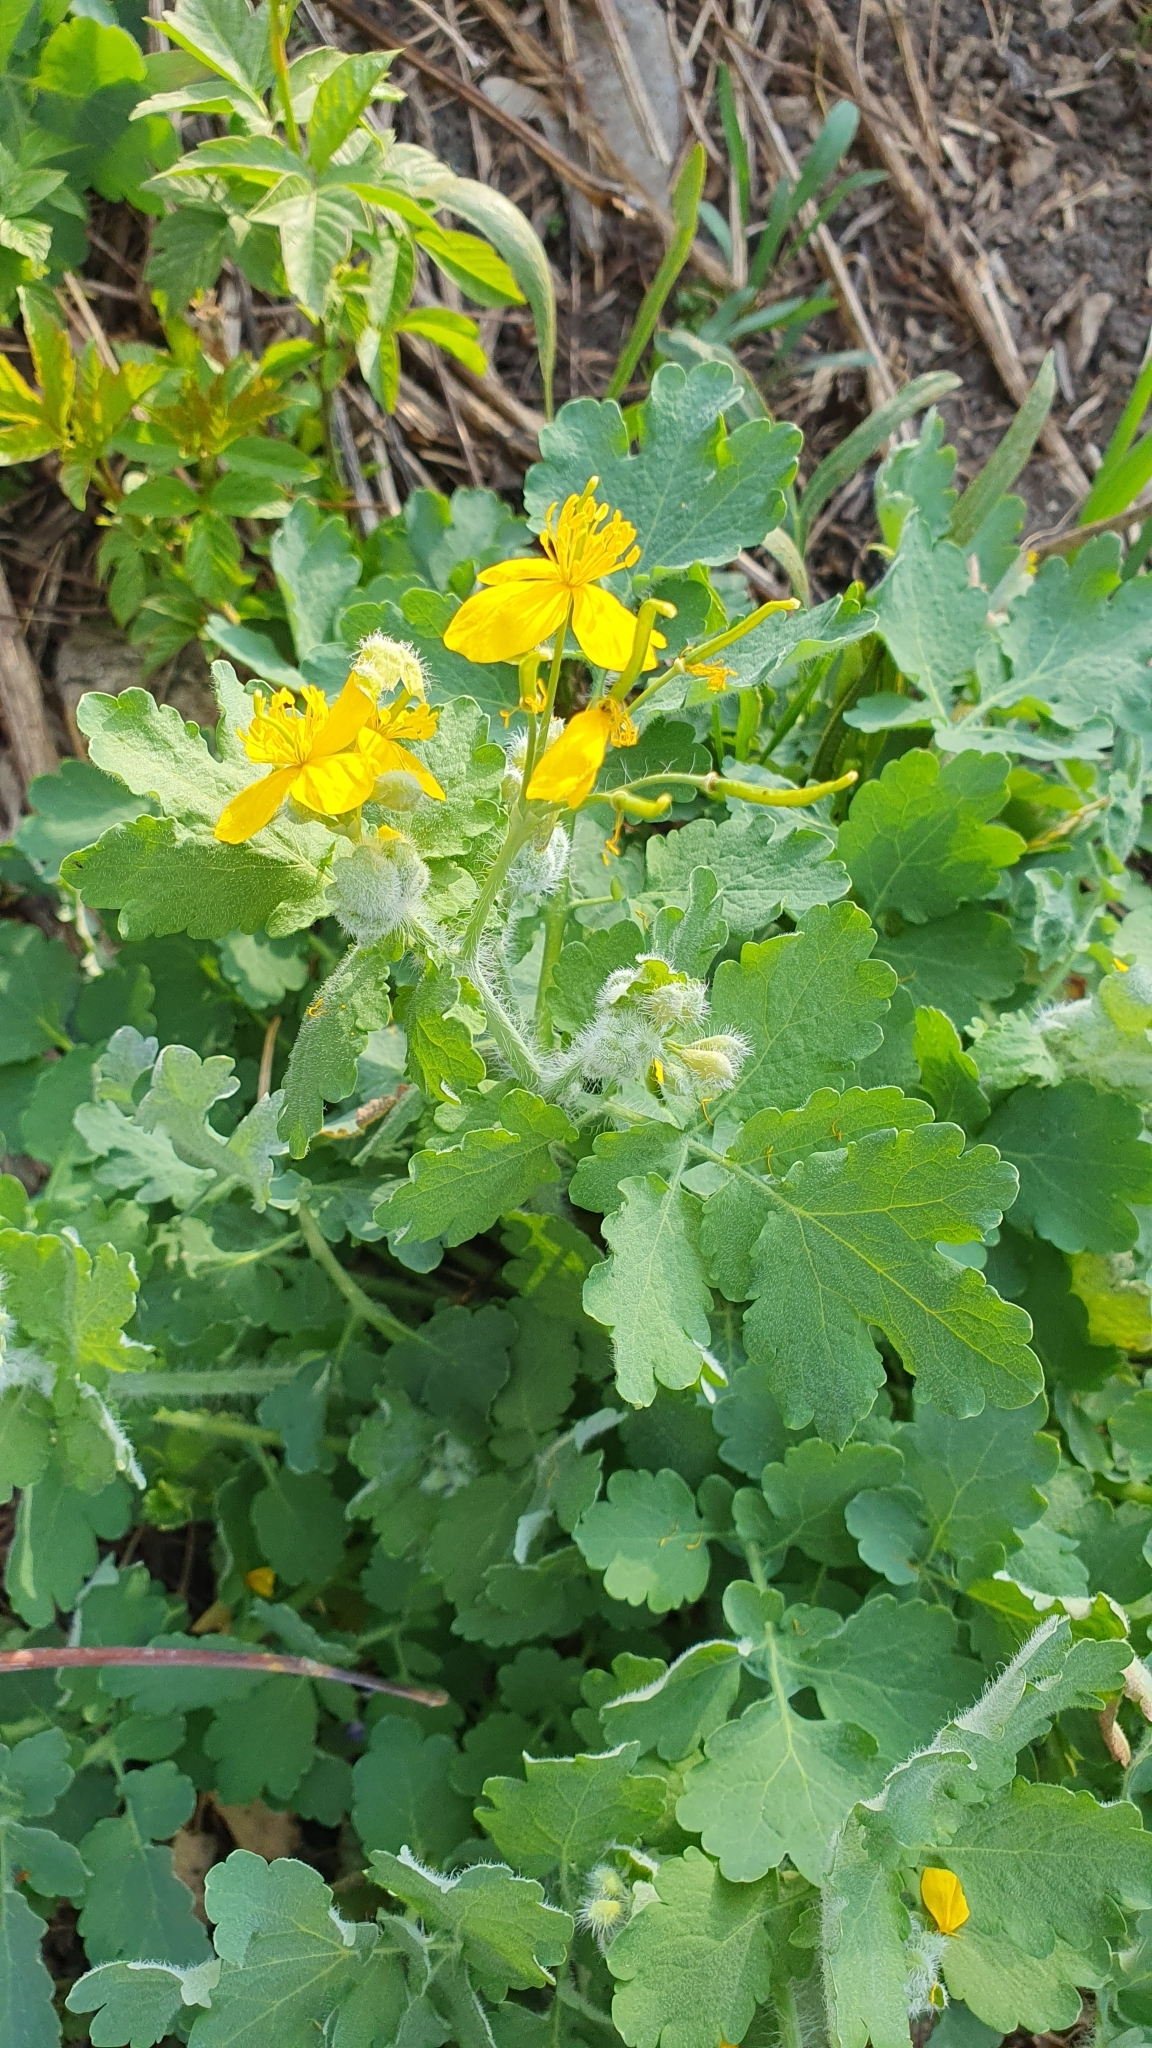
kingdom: Plantae
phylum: Tracheophyta
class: Magnoliopsida
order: Ranunculales
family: Papaveraceae
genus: Chelidonium
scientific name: Chelidonium majus
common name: Greater celandine
